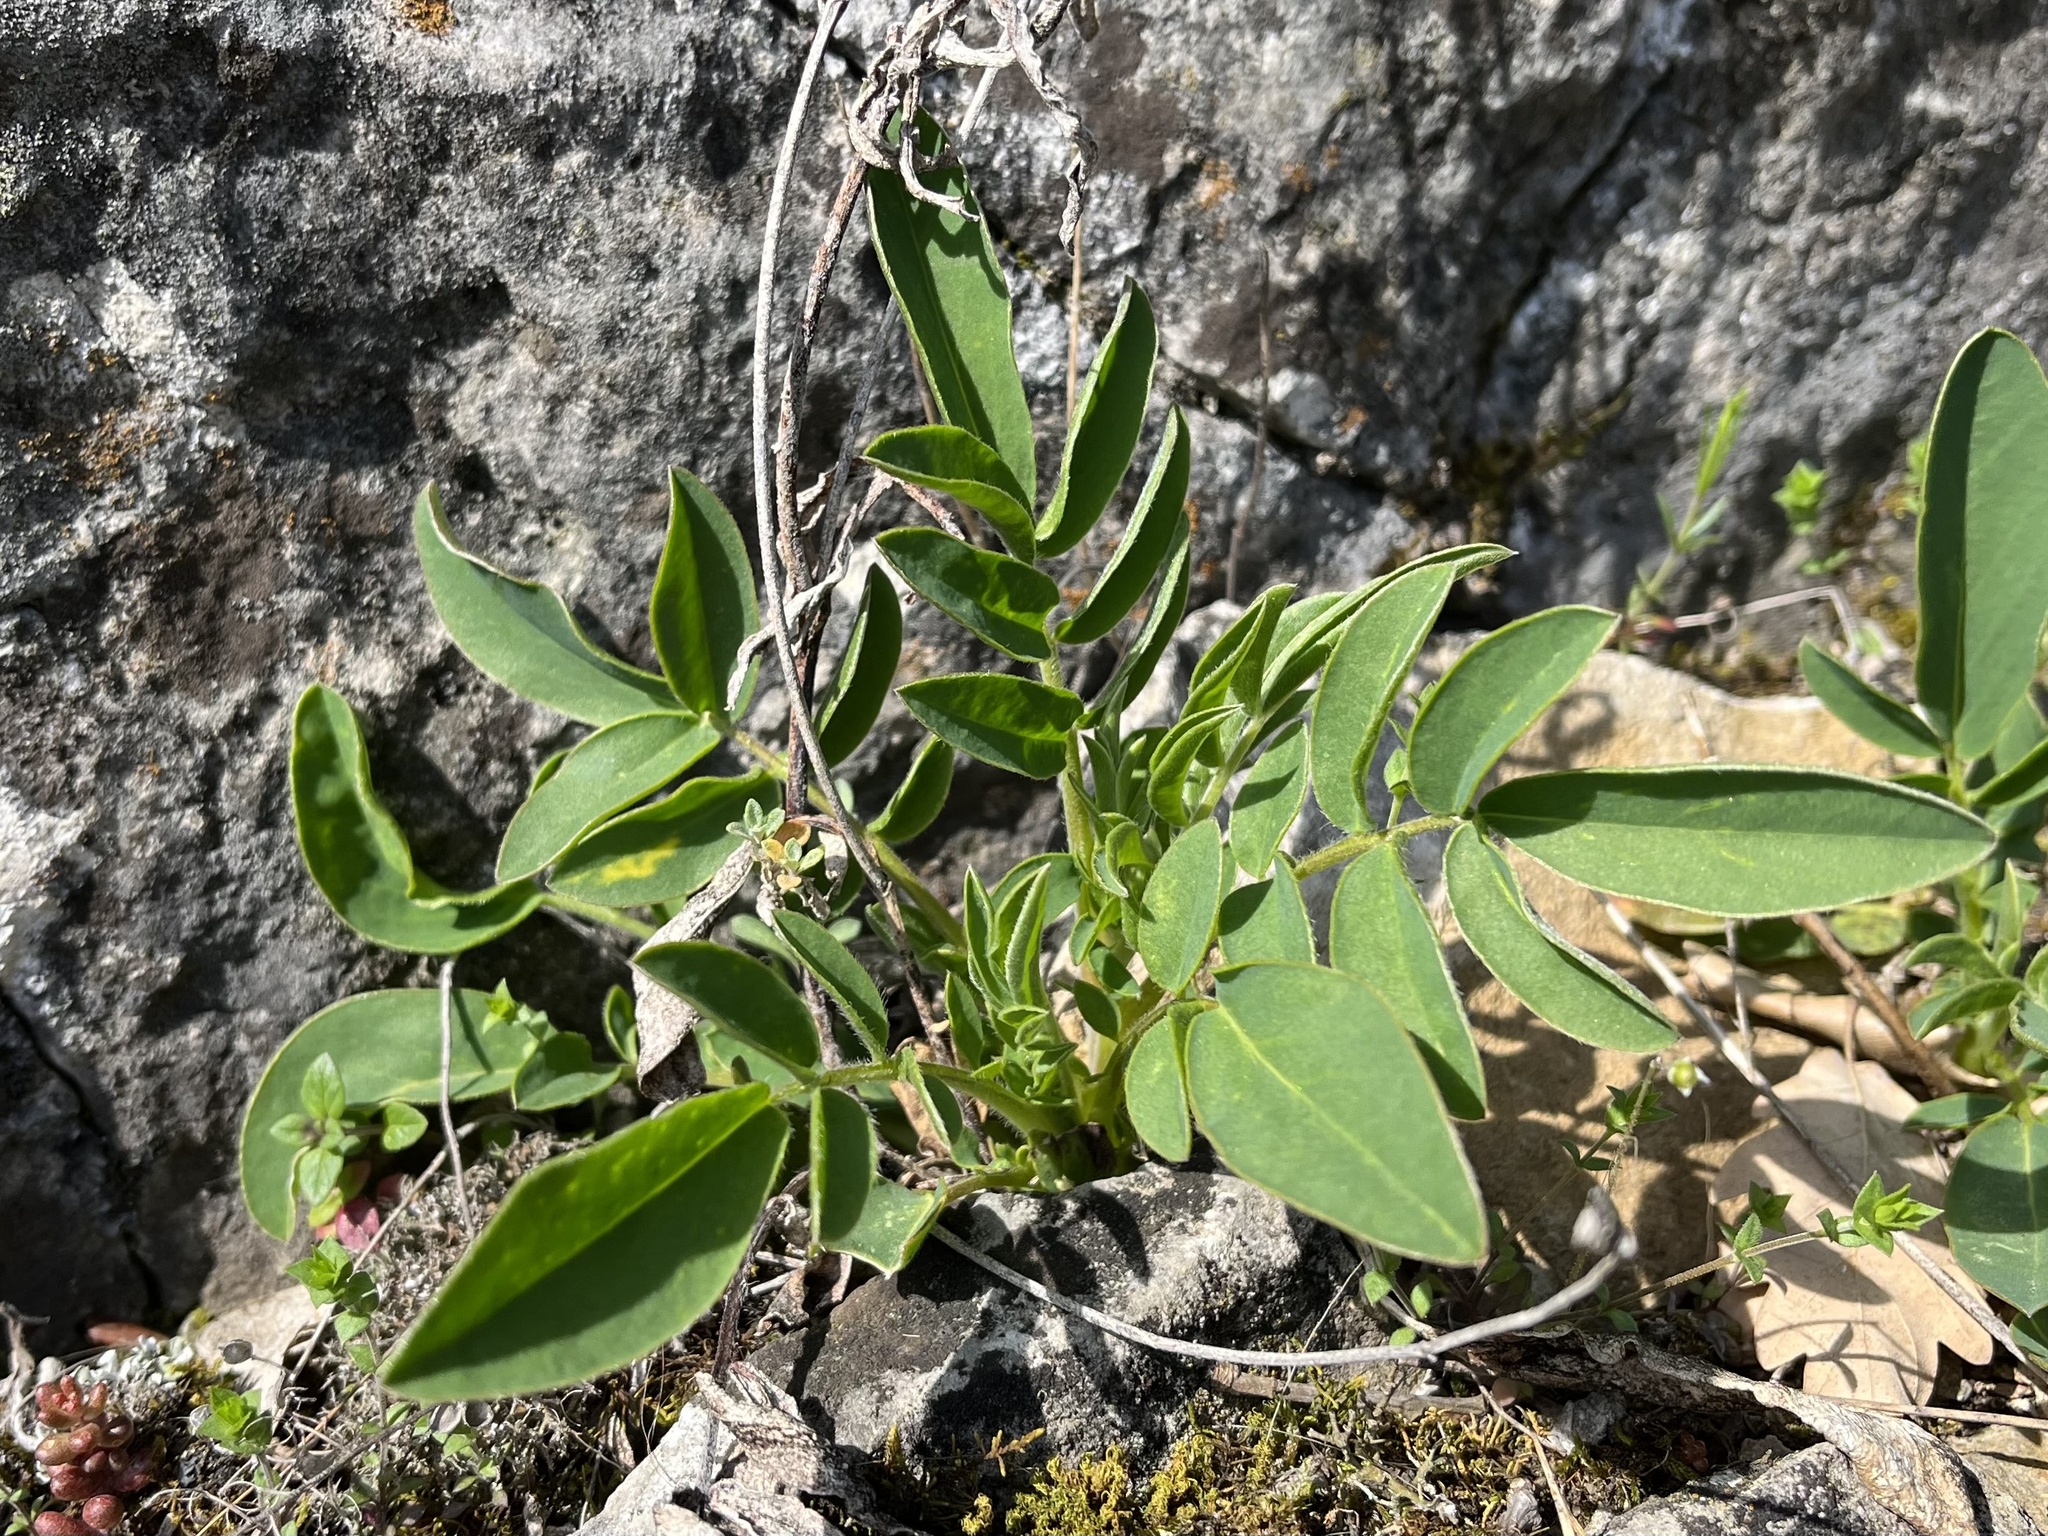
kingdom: Plantae
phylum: Tracheophyta
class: Magnoliopsida
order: Fabales
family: Fabaceae
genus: Anthyllis
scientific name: Anthyllis vulneraria
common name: Kidney vetch
